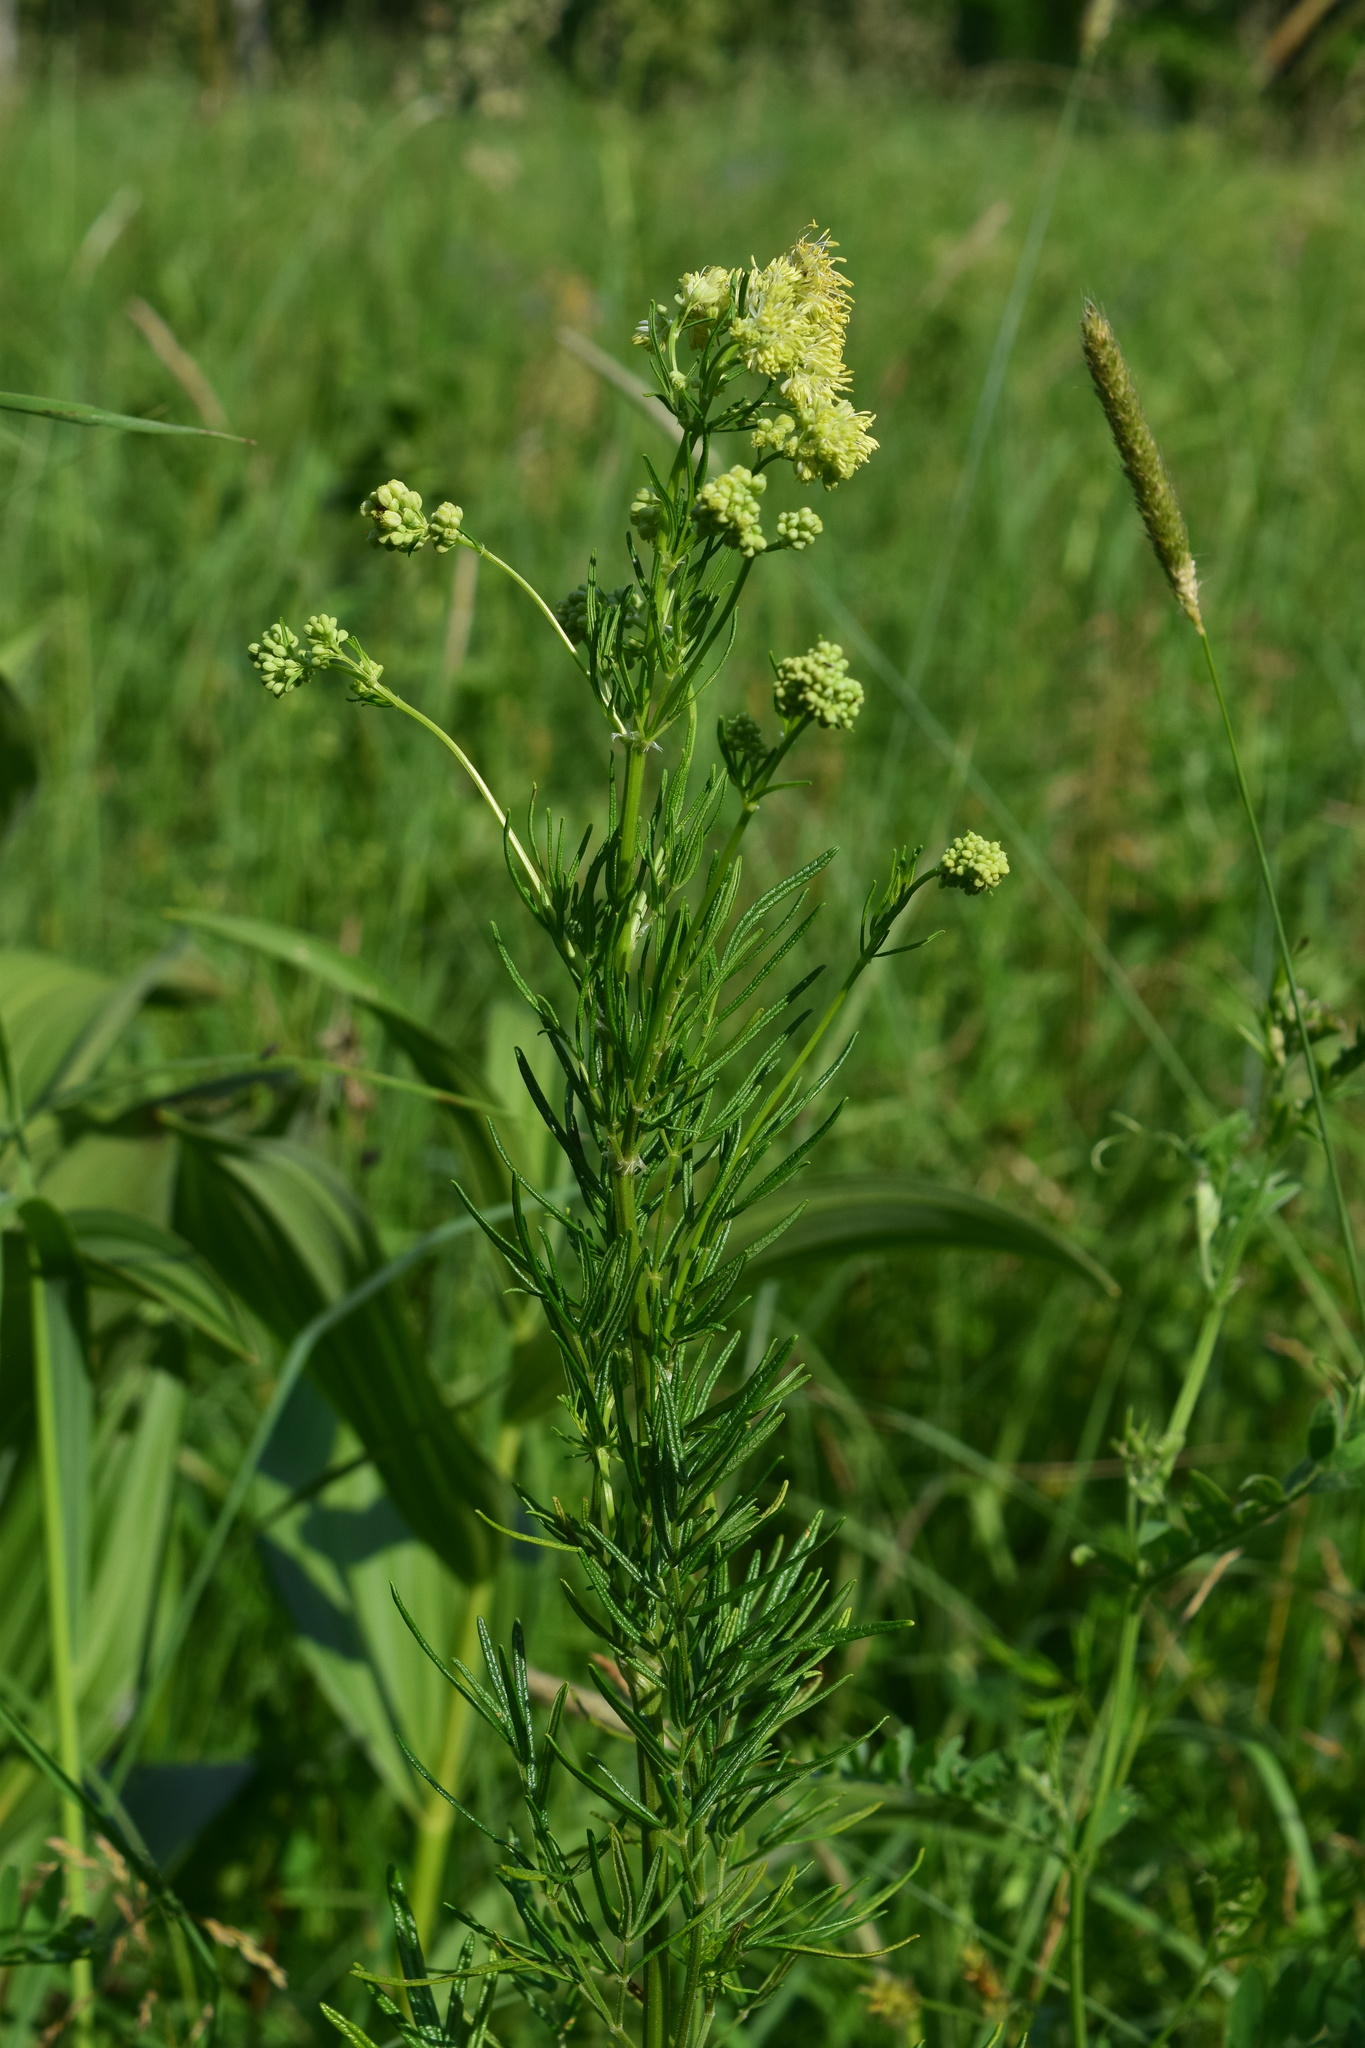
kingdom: Plantae
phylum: Tracheophyta
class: Magnoliopsida
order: Ranunculales
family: Ranunculaceae
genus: Thalictrum
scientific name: Thalictrum lucidum
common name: Shining meadow-rue
